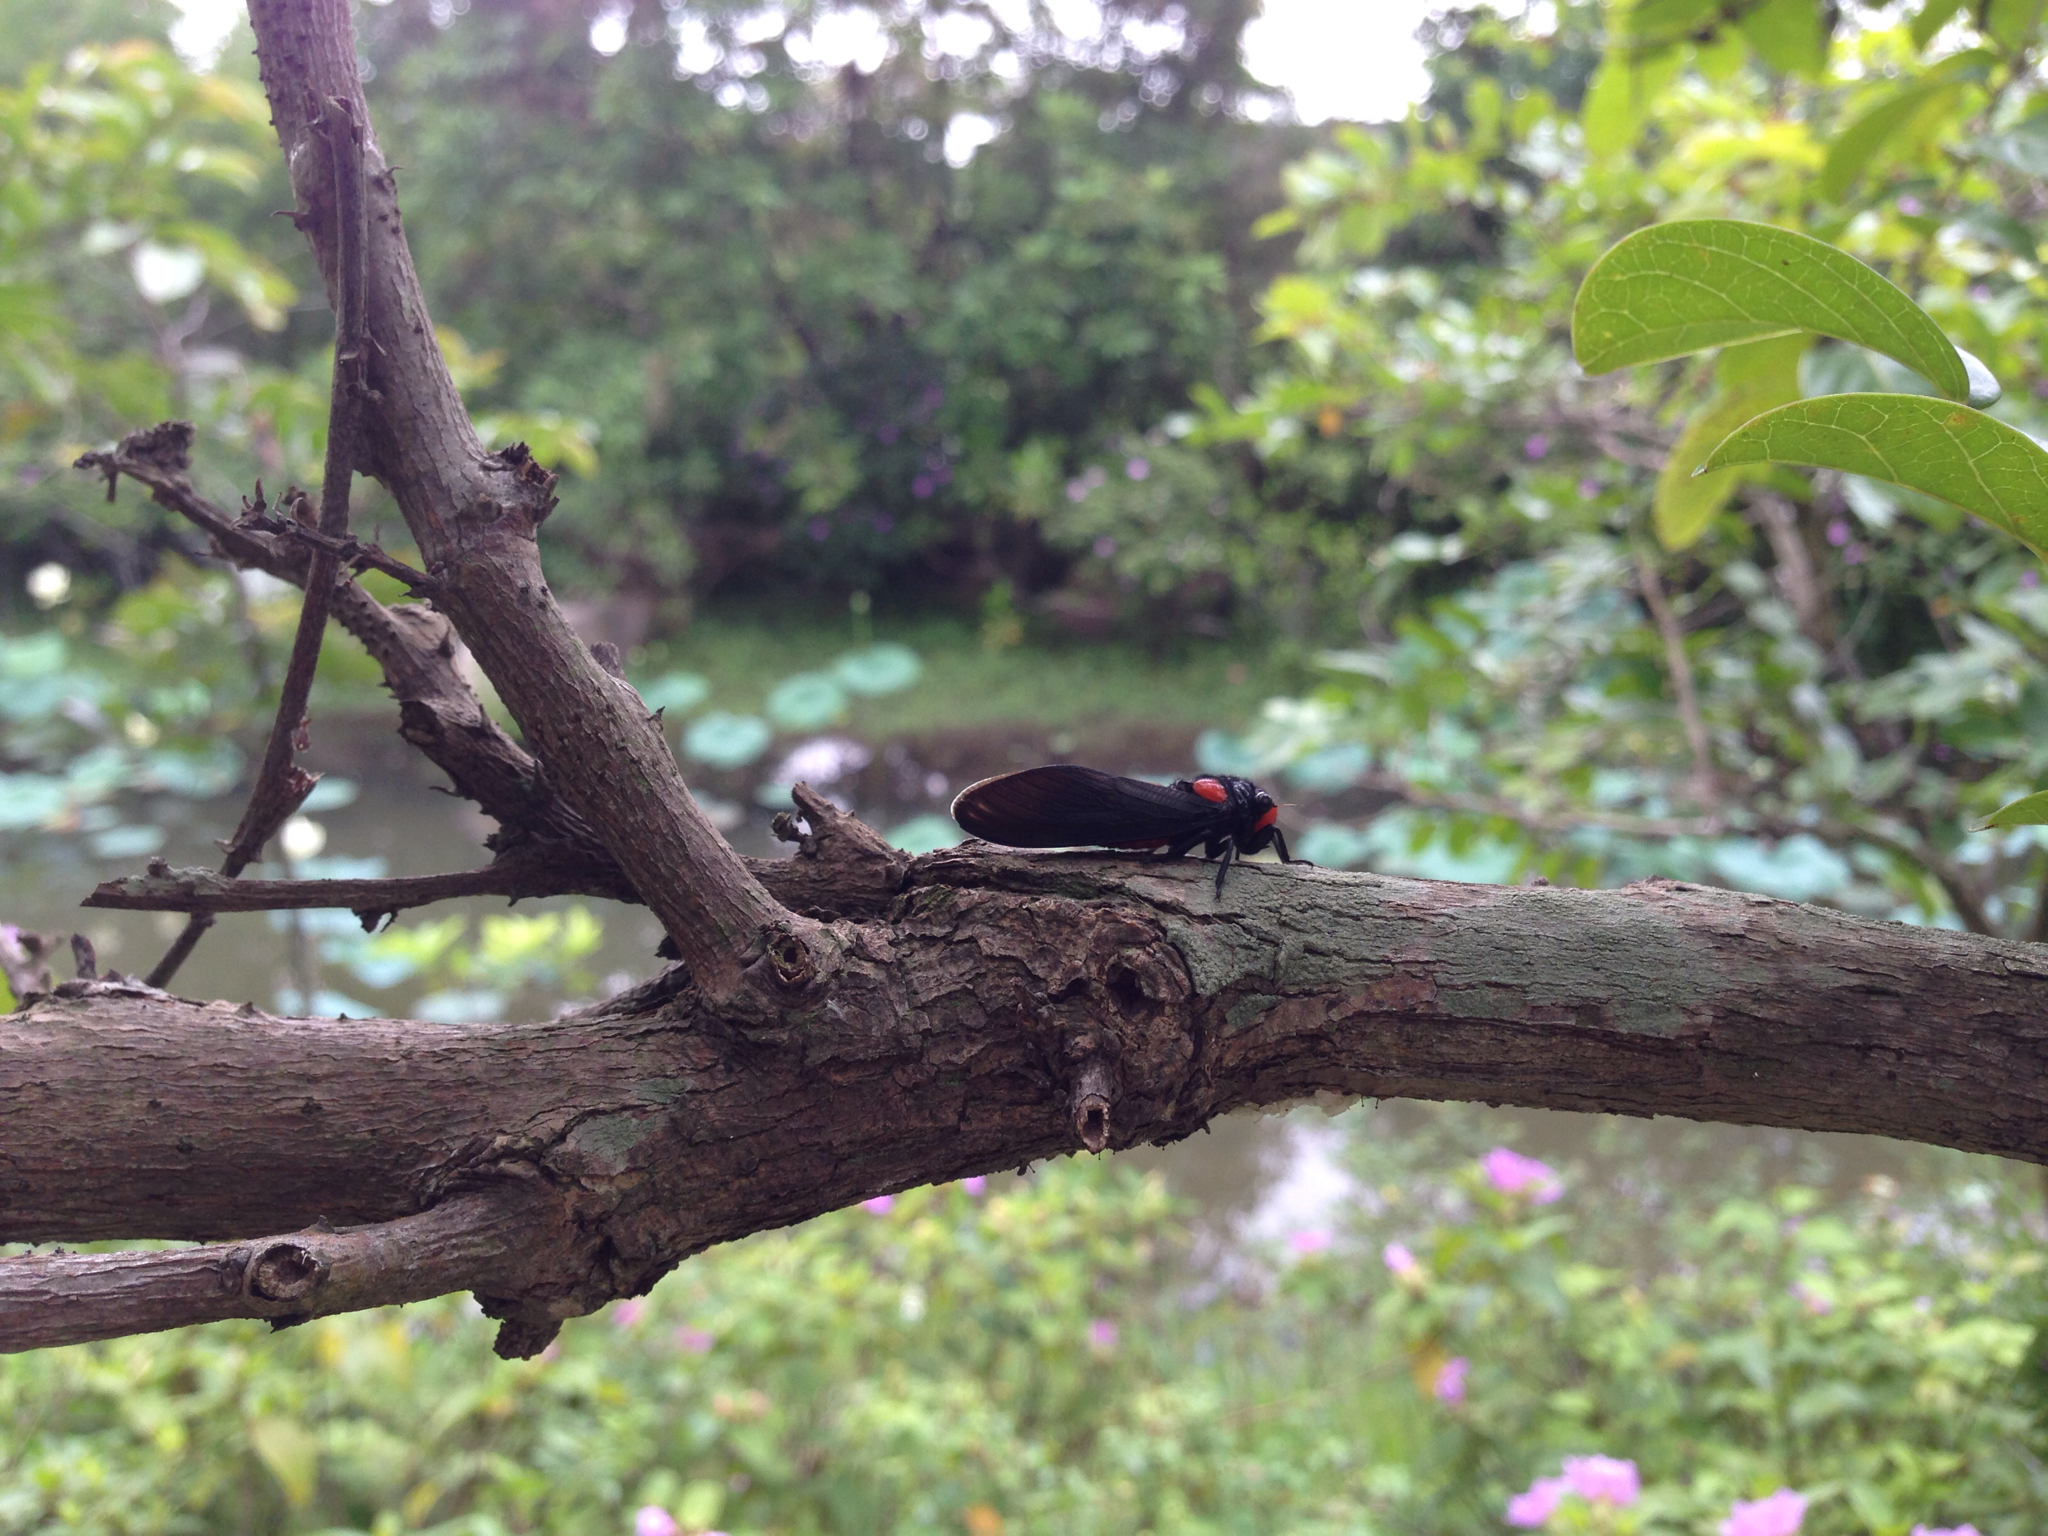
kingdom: Animalia
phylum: Arthropoda
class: Insecta
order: Hemiptera
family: Cicadidae
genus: Huechys
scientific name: Huechys sanguinea
